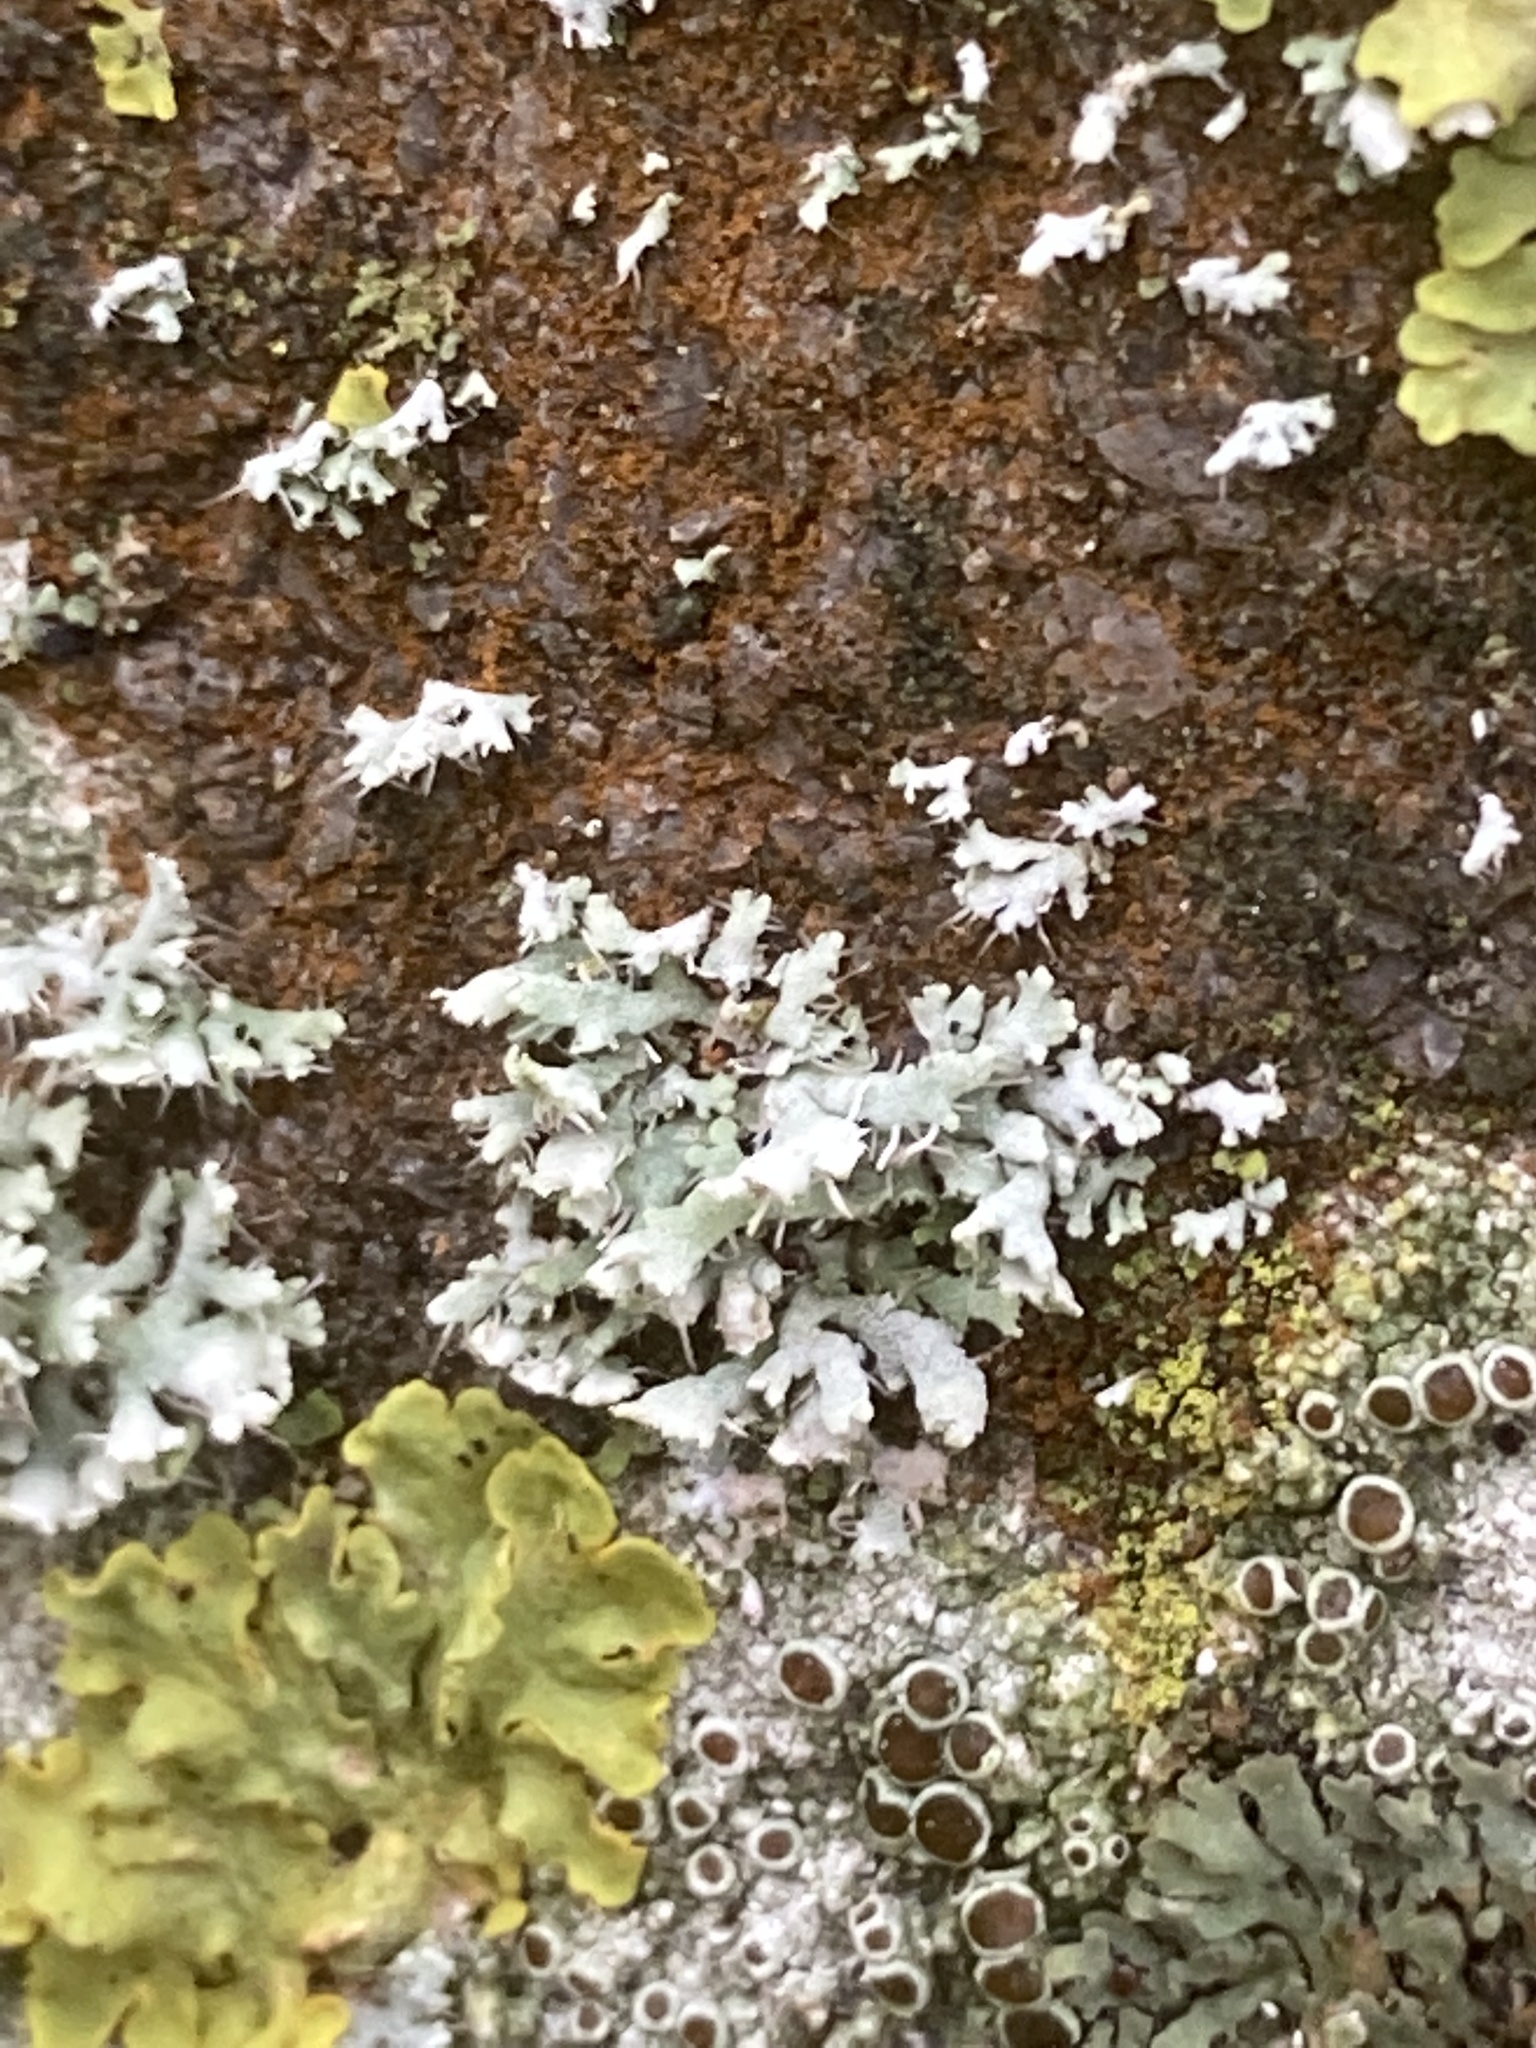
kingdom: Fungi
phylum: Ascomycota
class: Lecanoromycetes
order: Caliciales
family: Physciaceae
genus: Physcia
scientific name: Physcia adscendens
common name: Hooded rosette lichen
